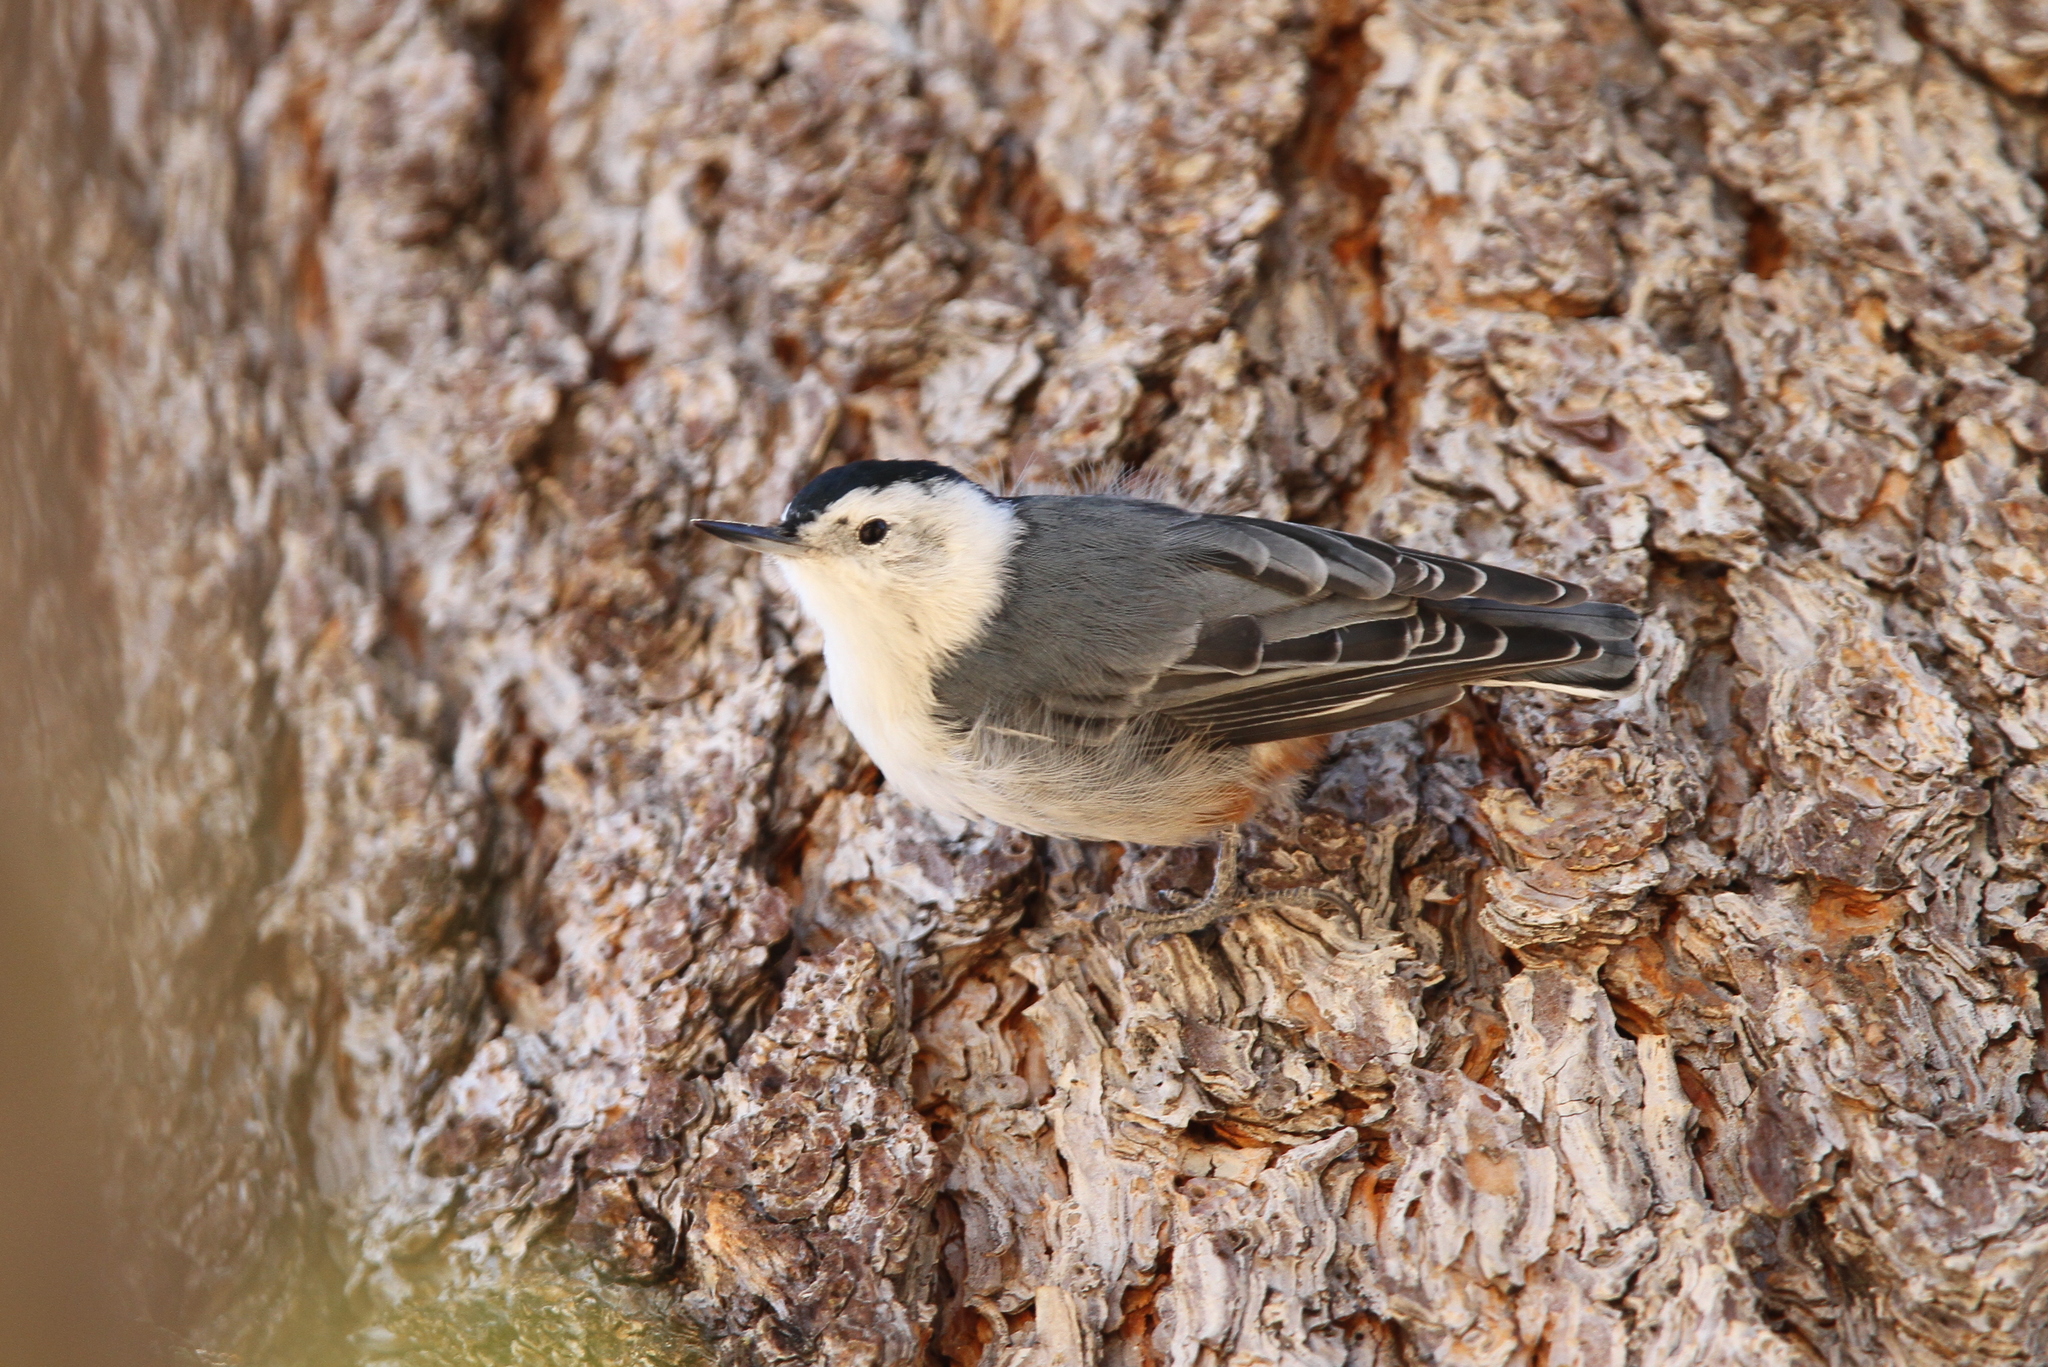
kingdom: Animalia
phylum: Chordata
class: Aves
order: Passeriformes
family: Sittidae
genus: Sitta
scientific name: Sitta carolinensis
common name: White-breasted nuthatch
